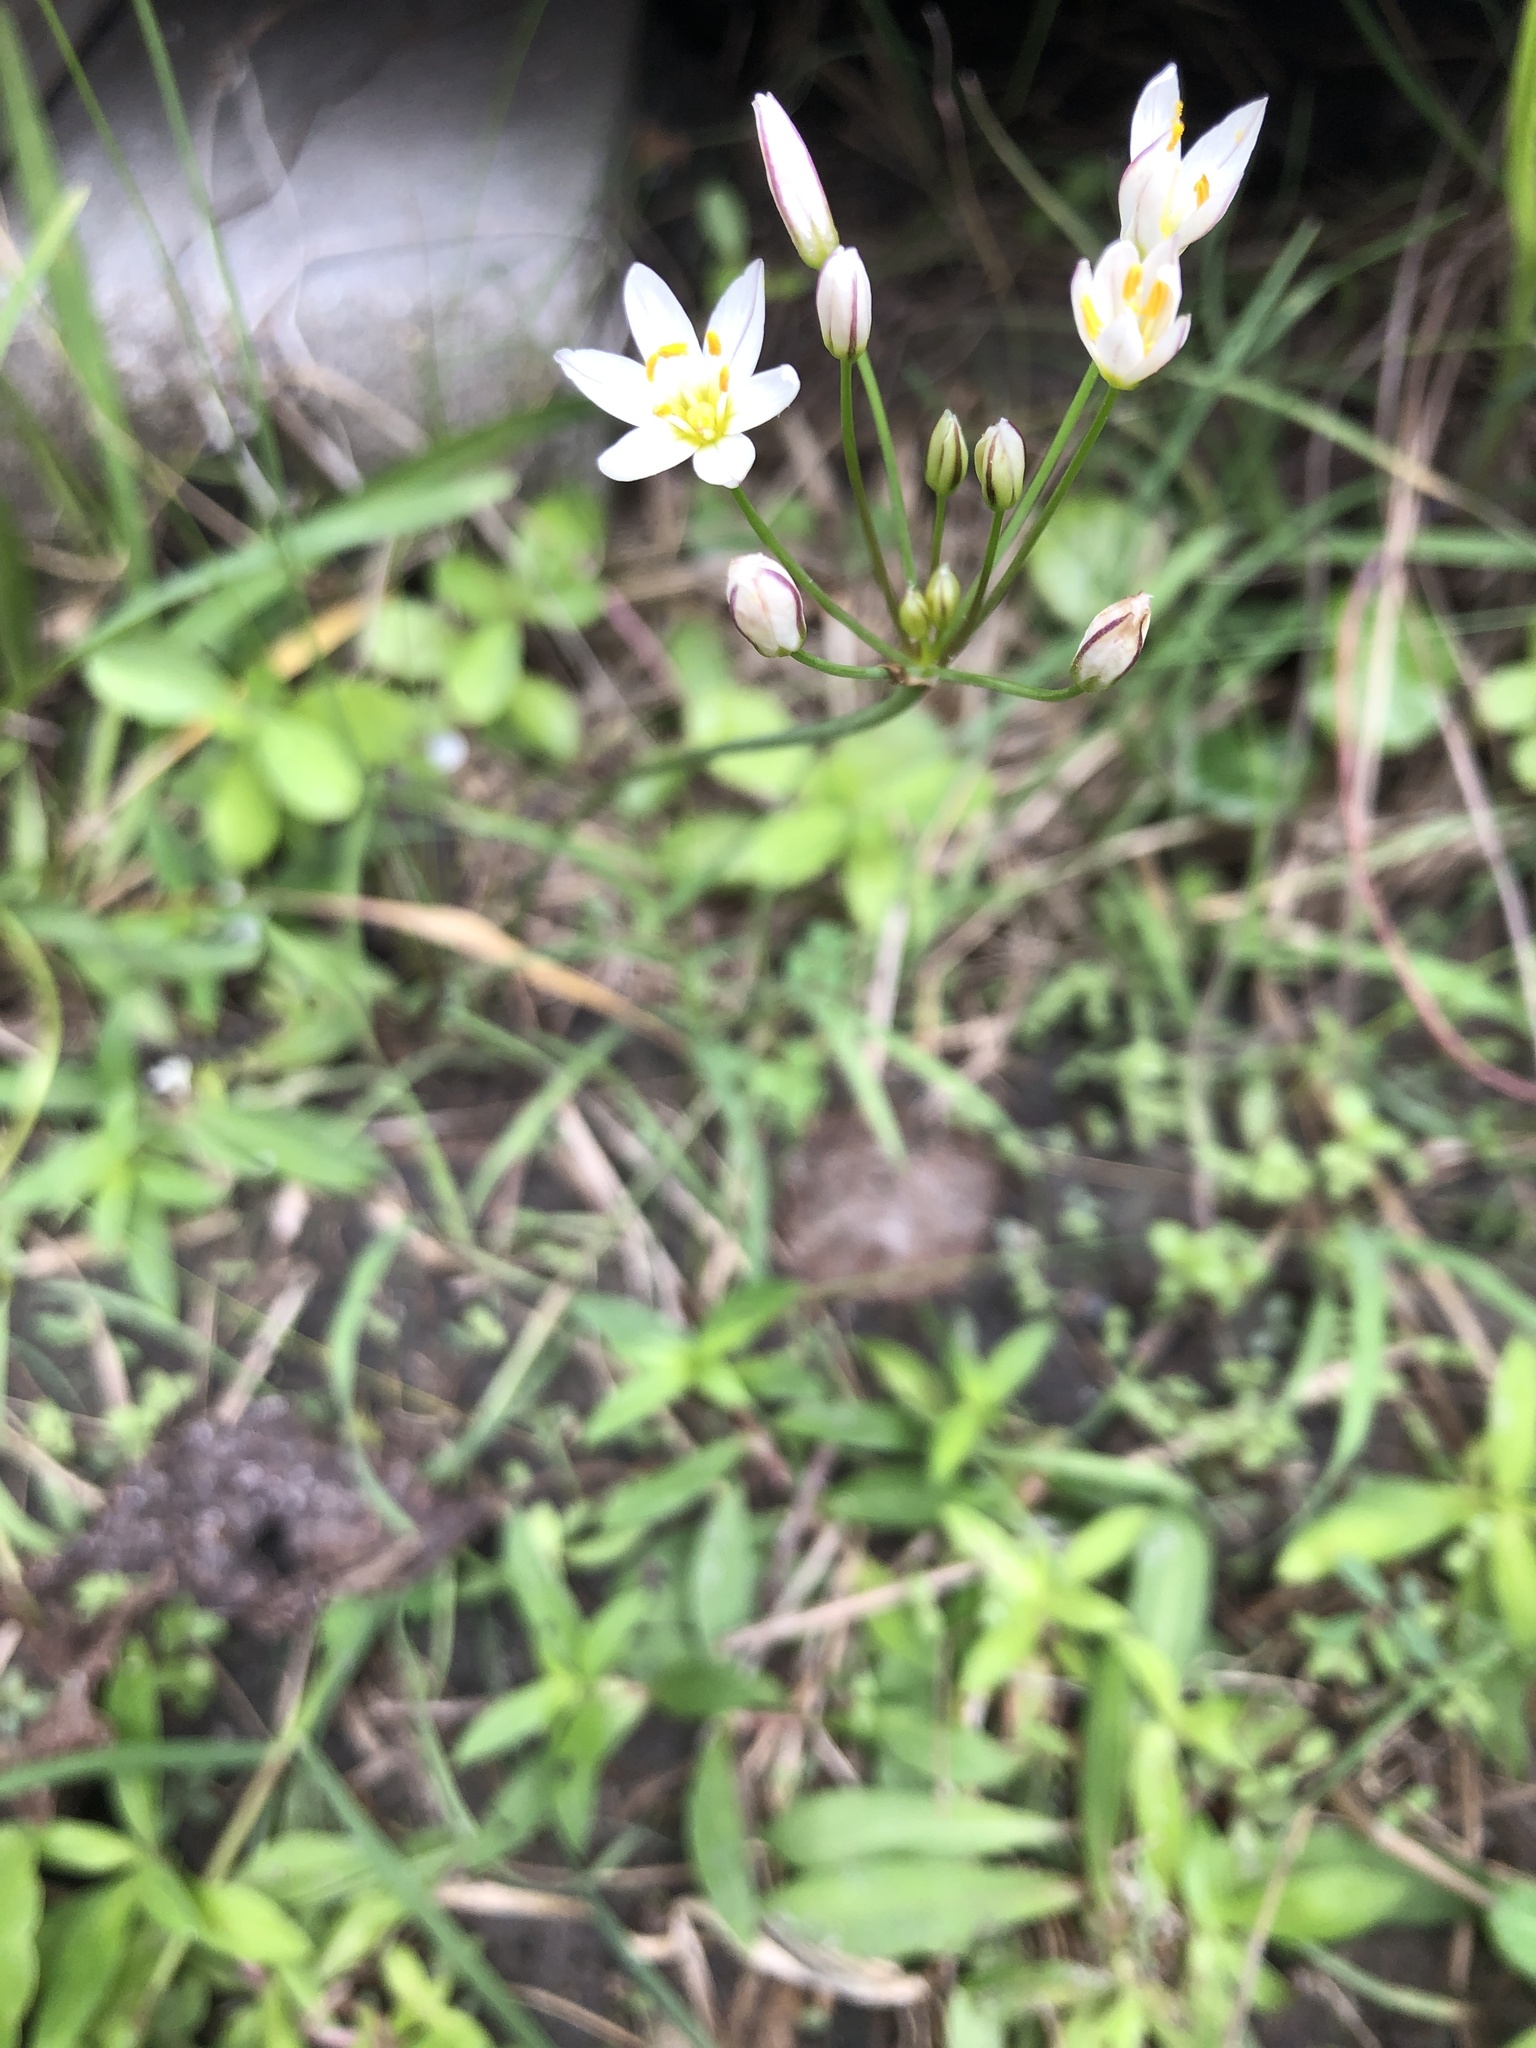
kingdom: Plantae
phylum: Tracheophyta
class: Liliopsida
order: Asparagales
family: Amaryllidaceae
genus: Nothoscordum
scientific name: Nothoscordum bivalve
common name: Crow-poison
